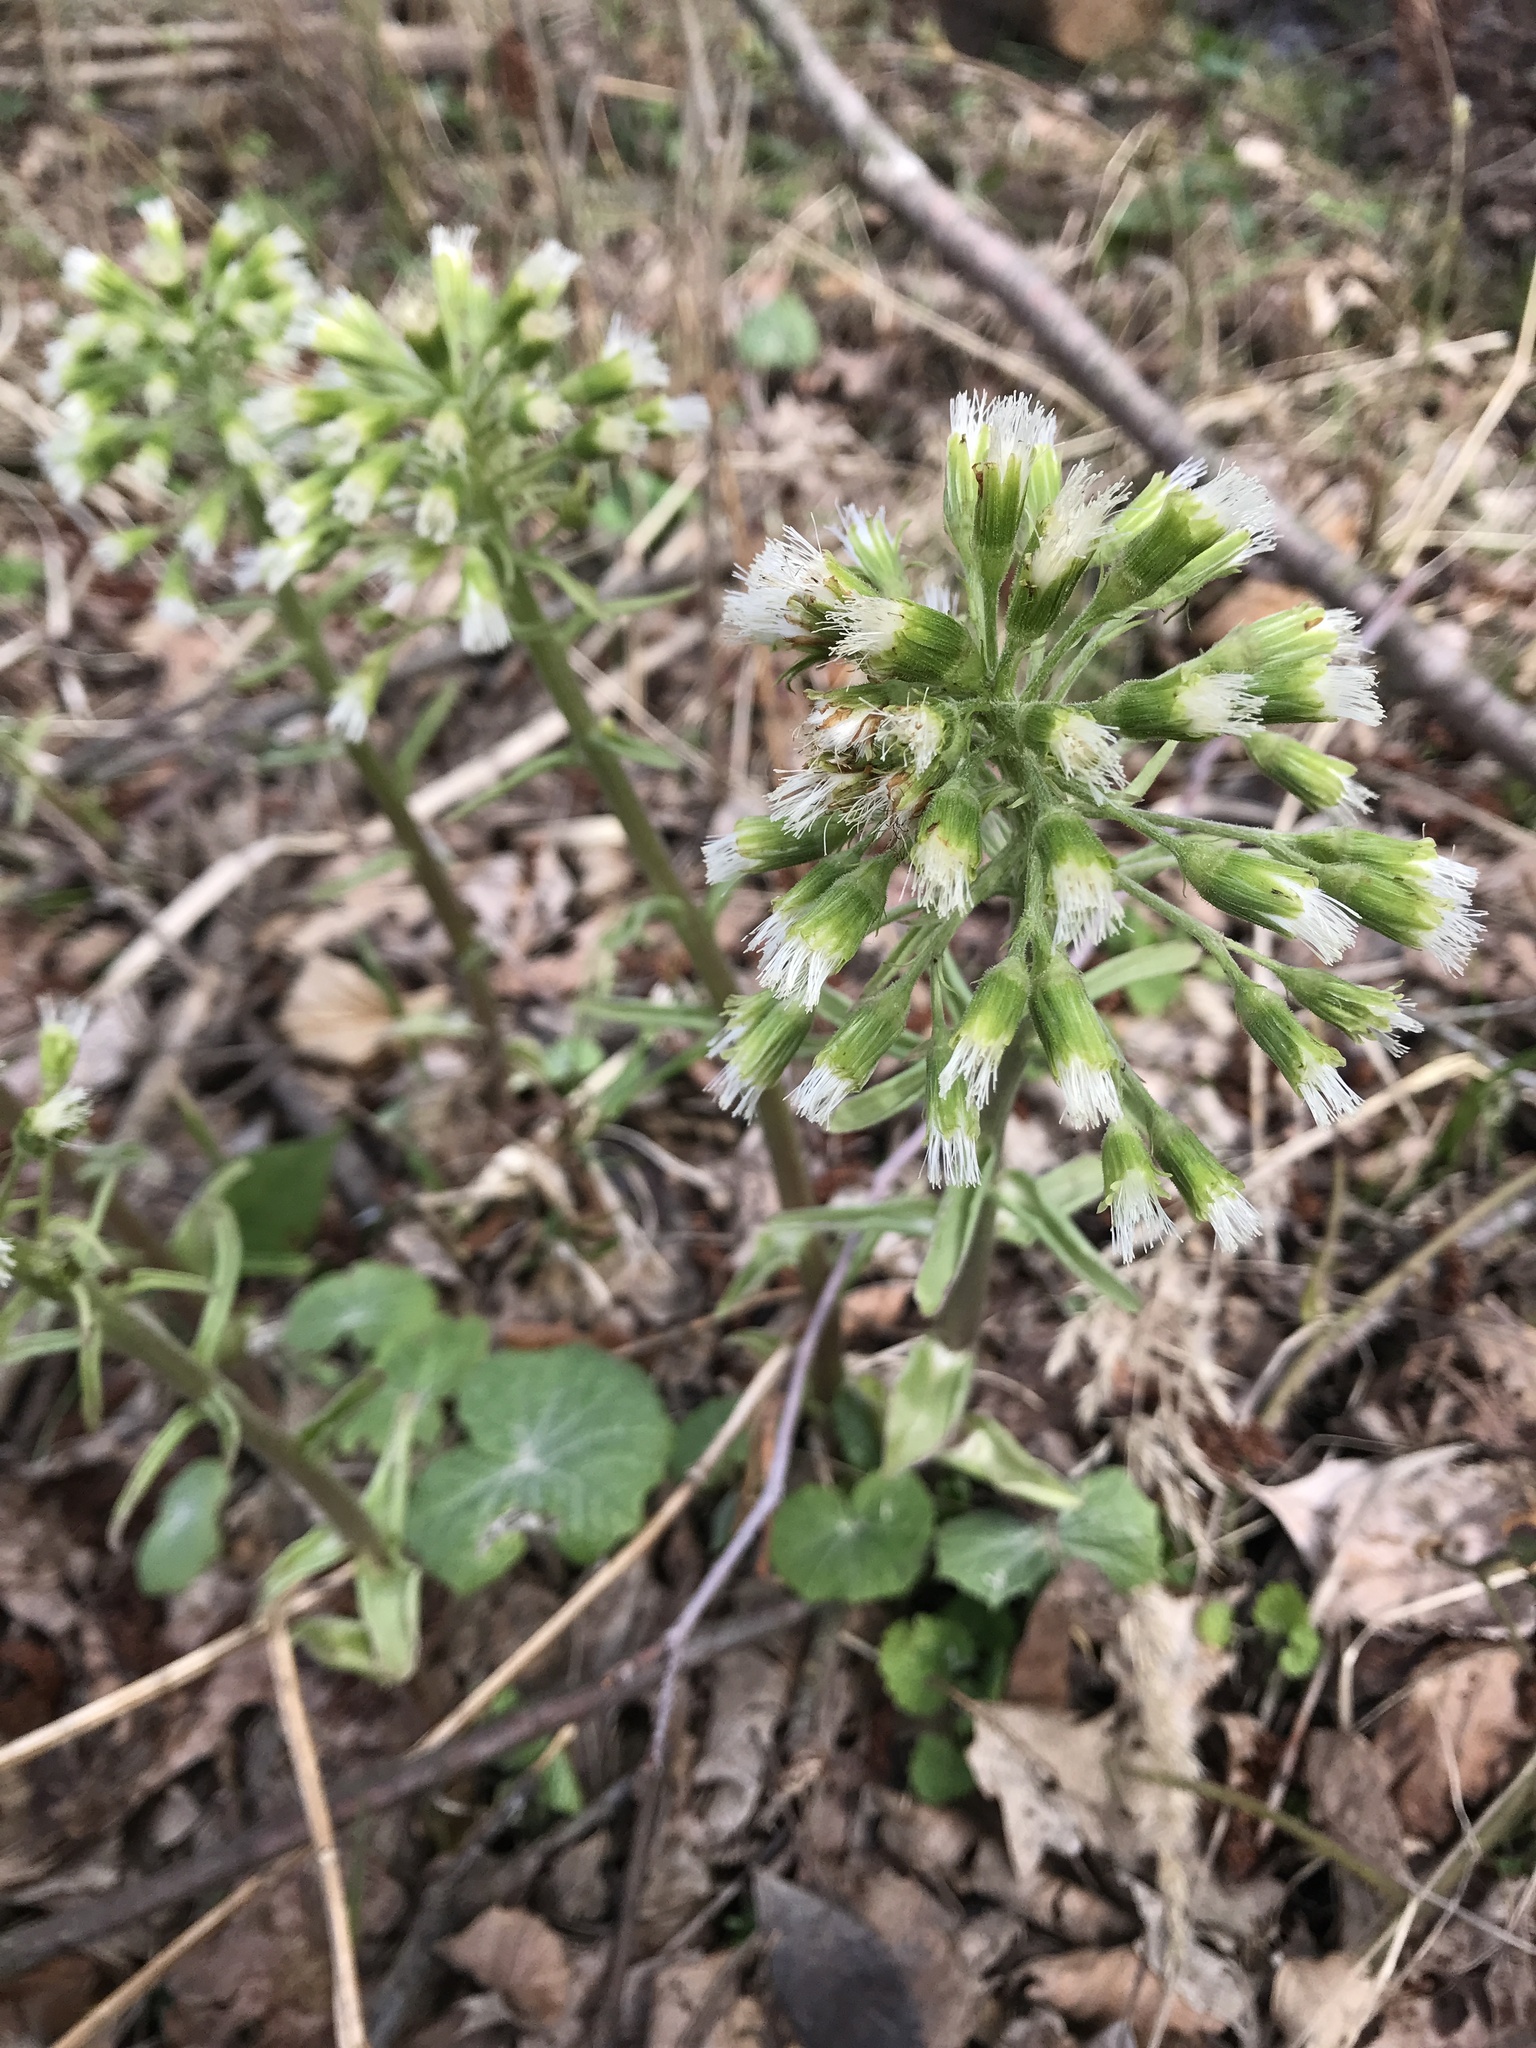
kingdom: Plantae
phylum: Tracheophyta
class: Magnoliopsida
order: Asterales
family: Asteraceae
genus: Petasites
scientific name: Petasites albus
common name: White butterbur
